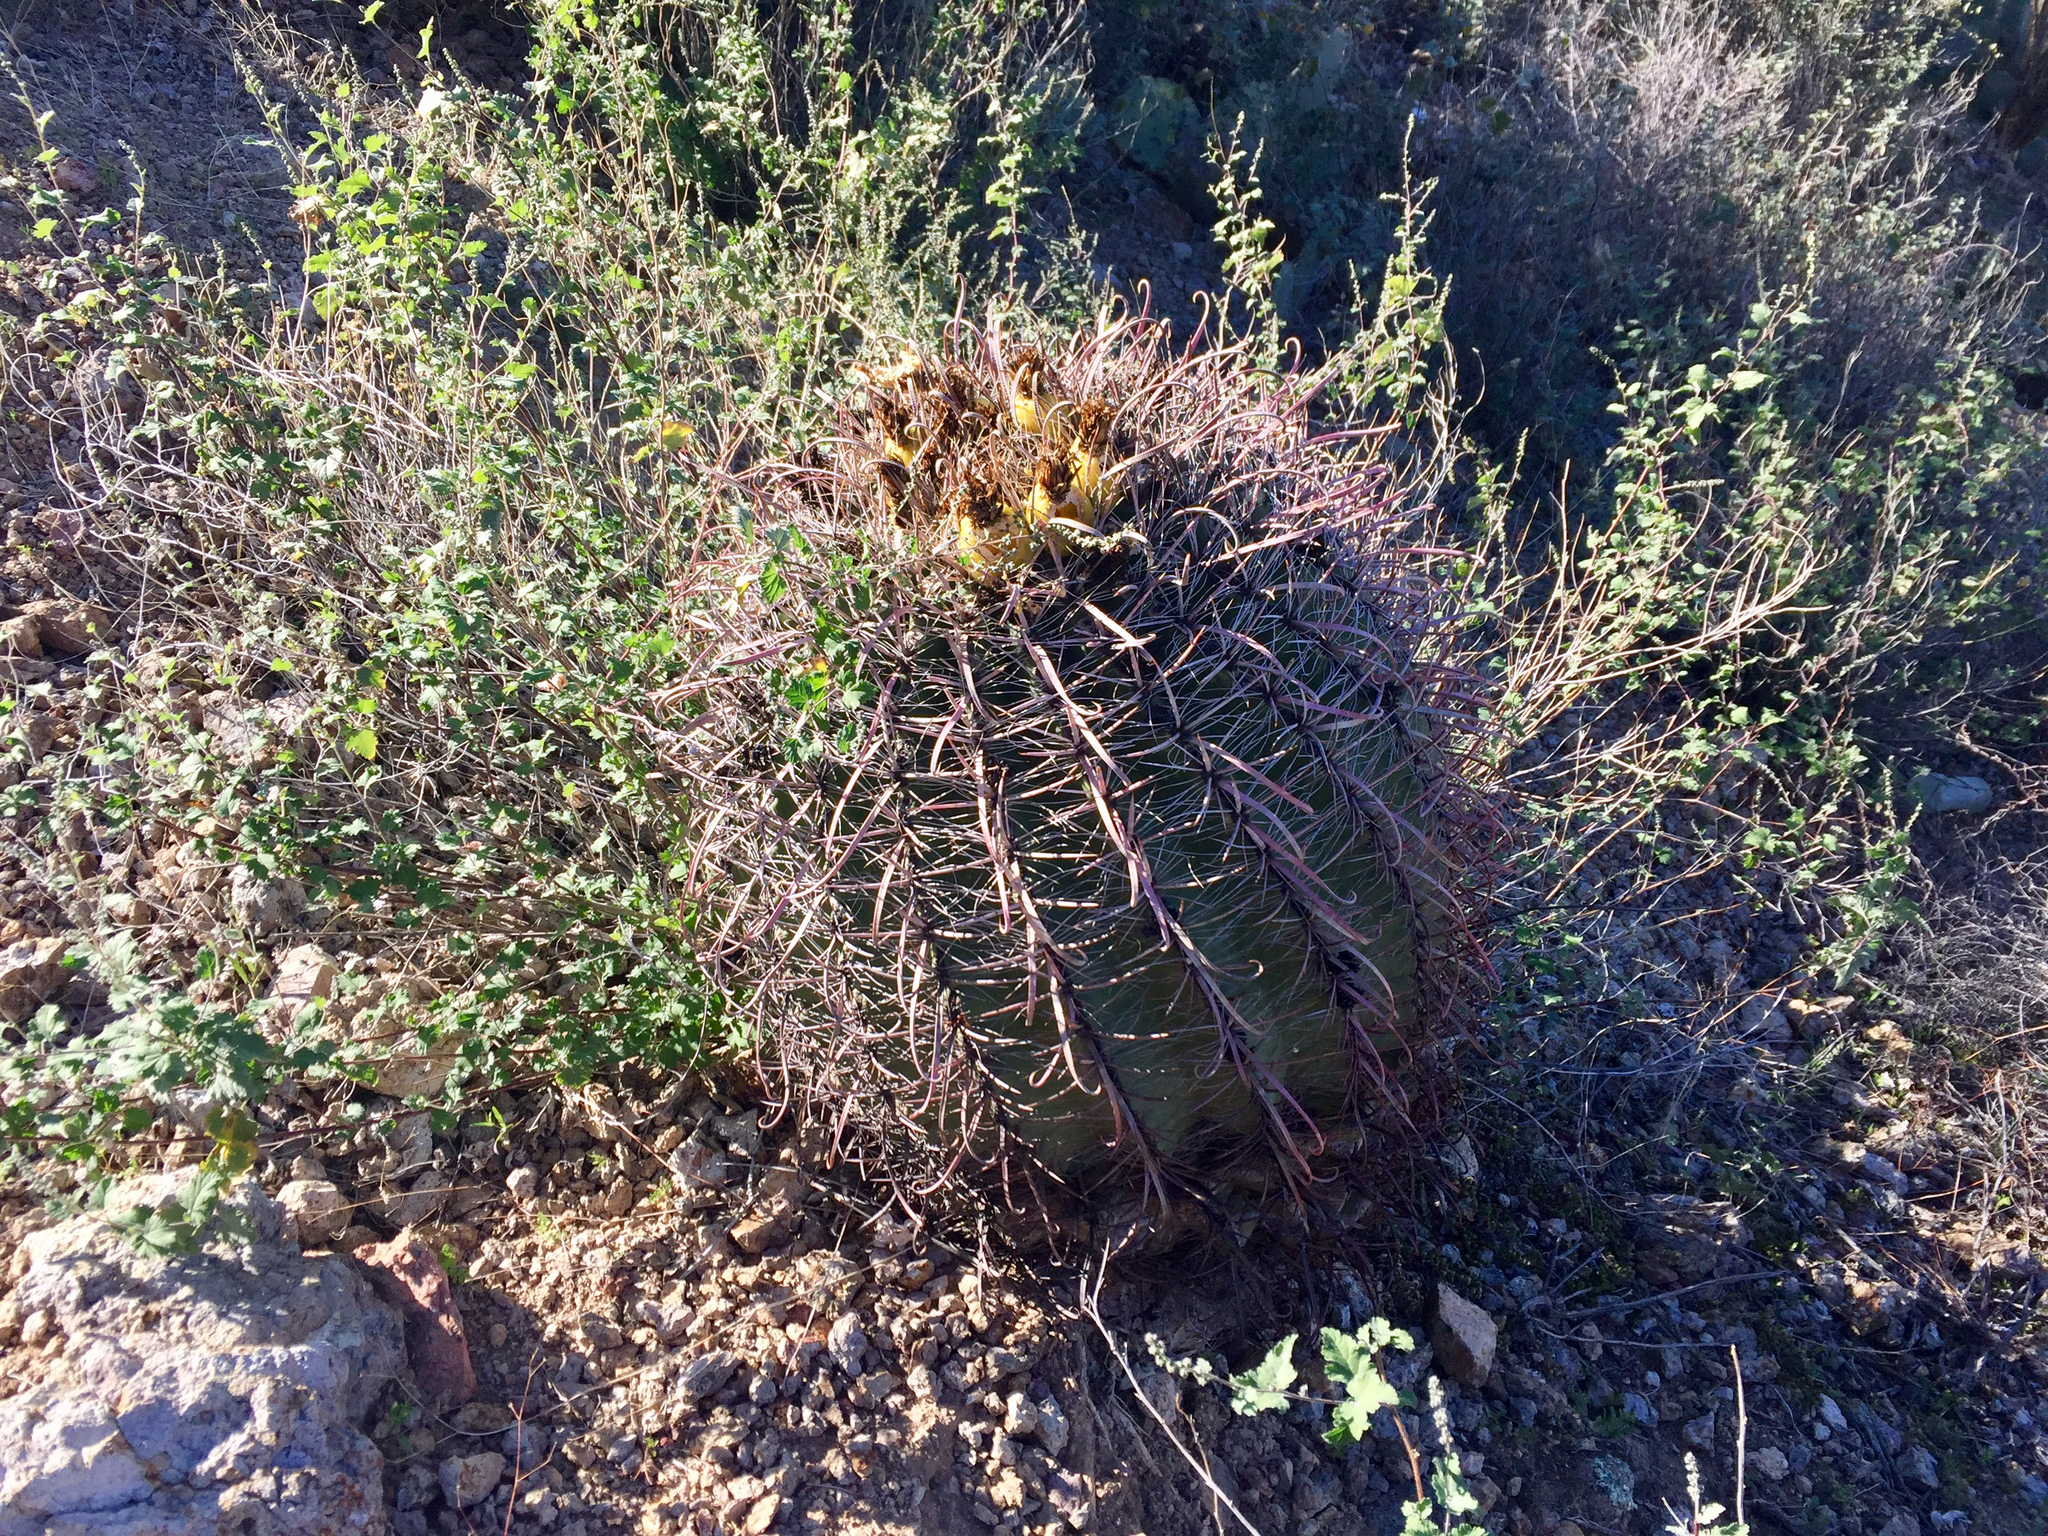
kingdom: Plantae
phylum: Tracheophyta
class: Magnoliopsida
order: Caryophyllales
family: Cactaceae
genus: Ferocactus
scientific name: Ferocactus wislizeni
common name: Candy barrel cactus
